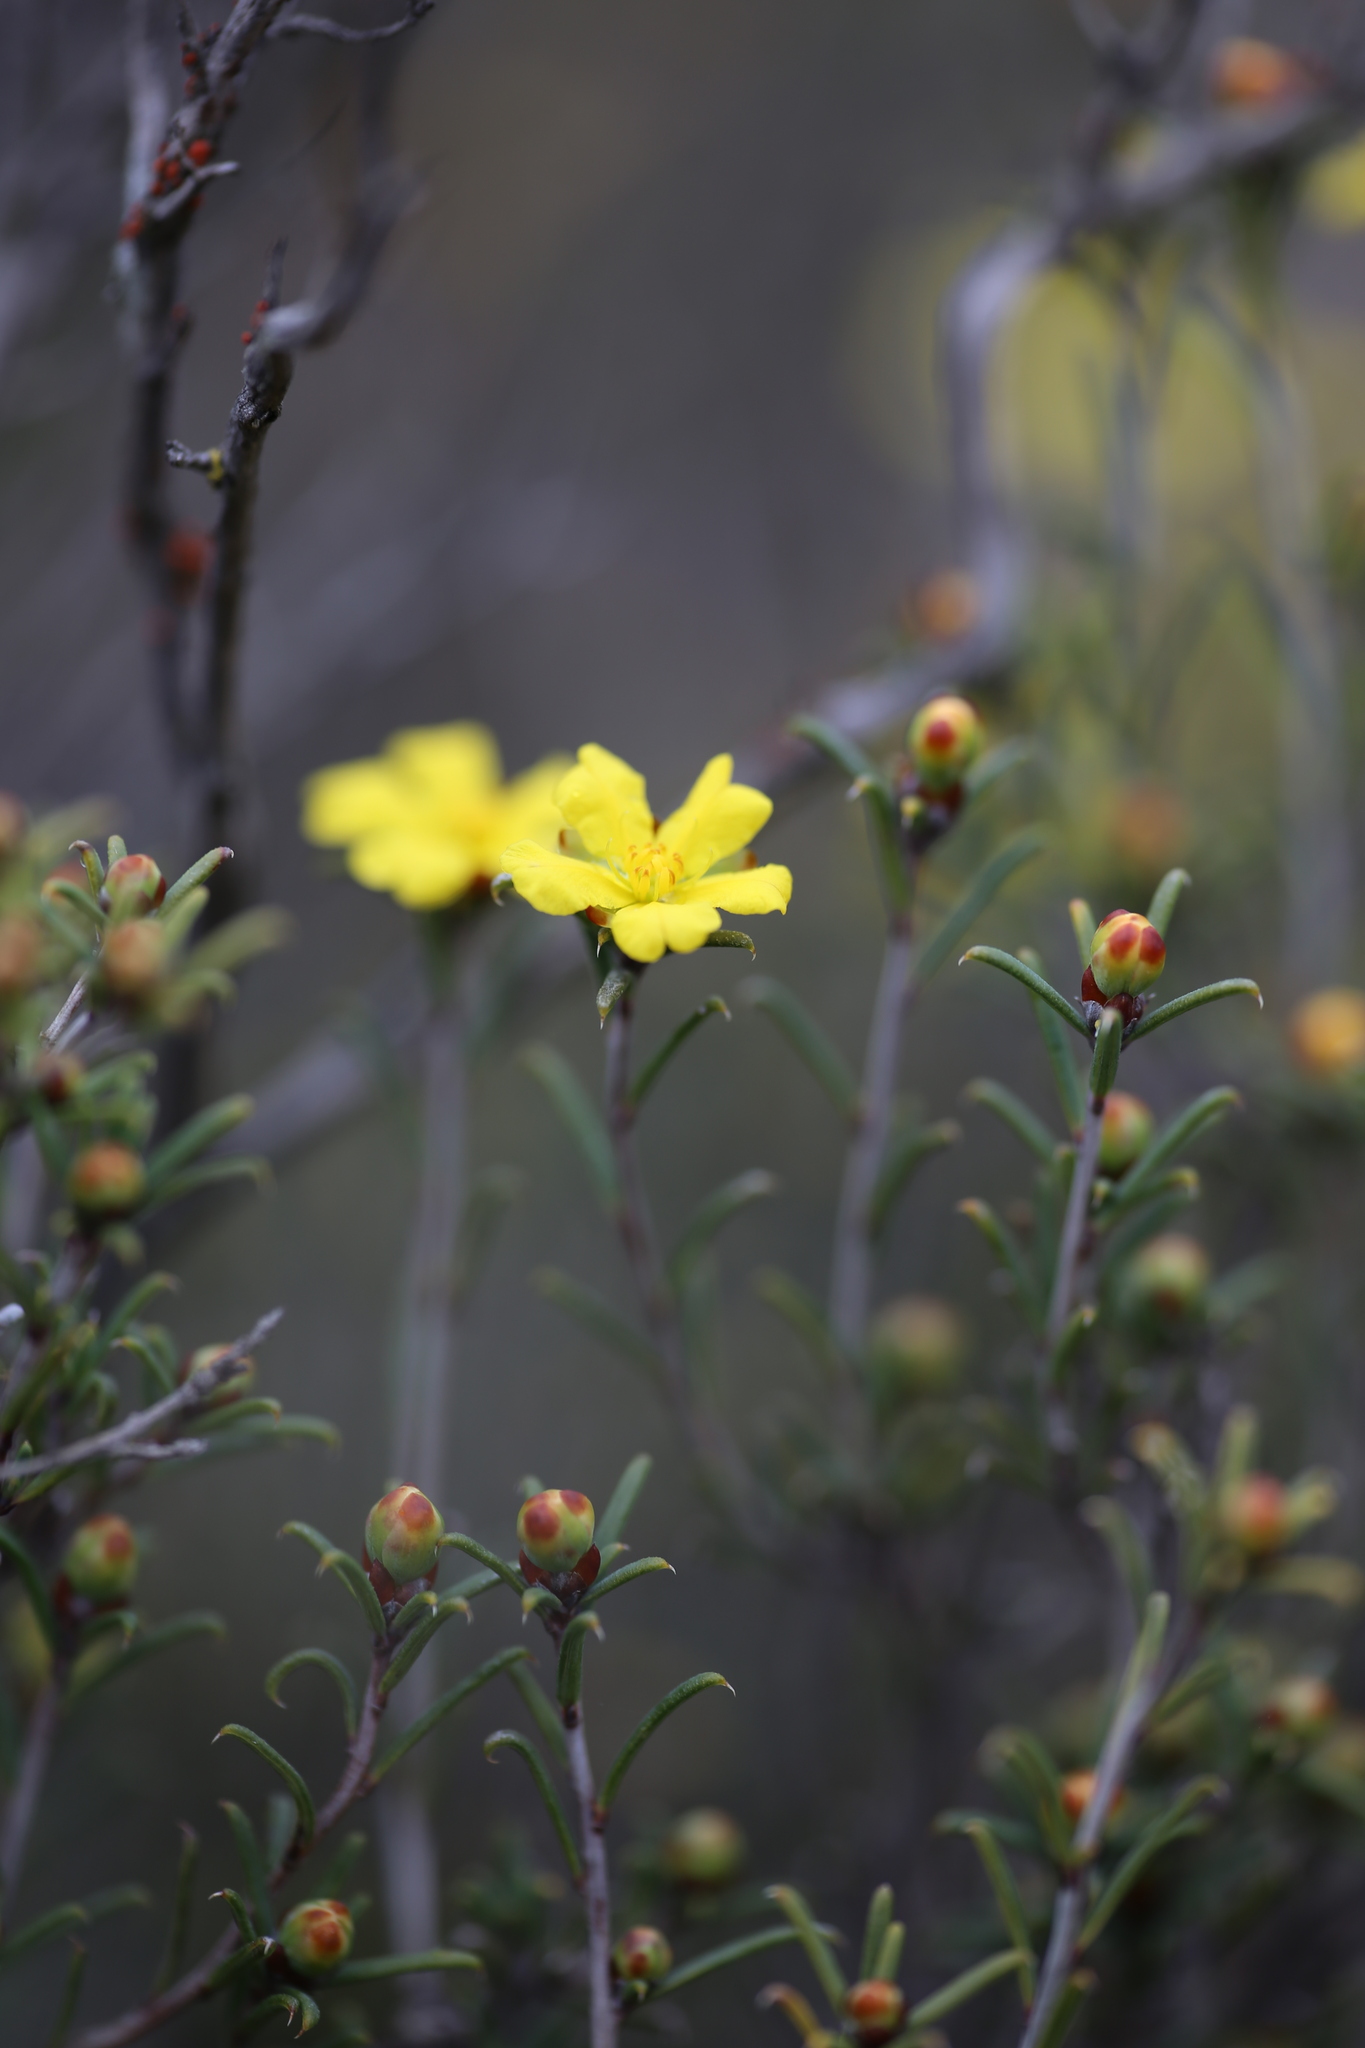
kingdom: Plantae
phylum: Tracheophyta
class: Magnoliopsida
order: Dilleniales
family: Dilleniaceae
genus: Hibbertia
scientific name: Hibbertia uncinata
